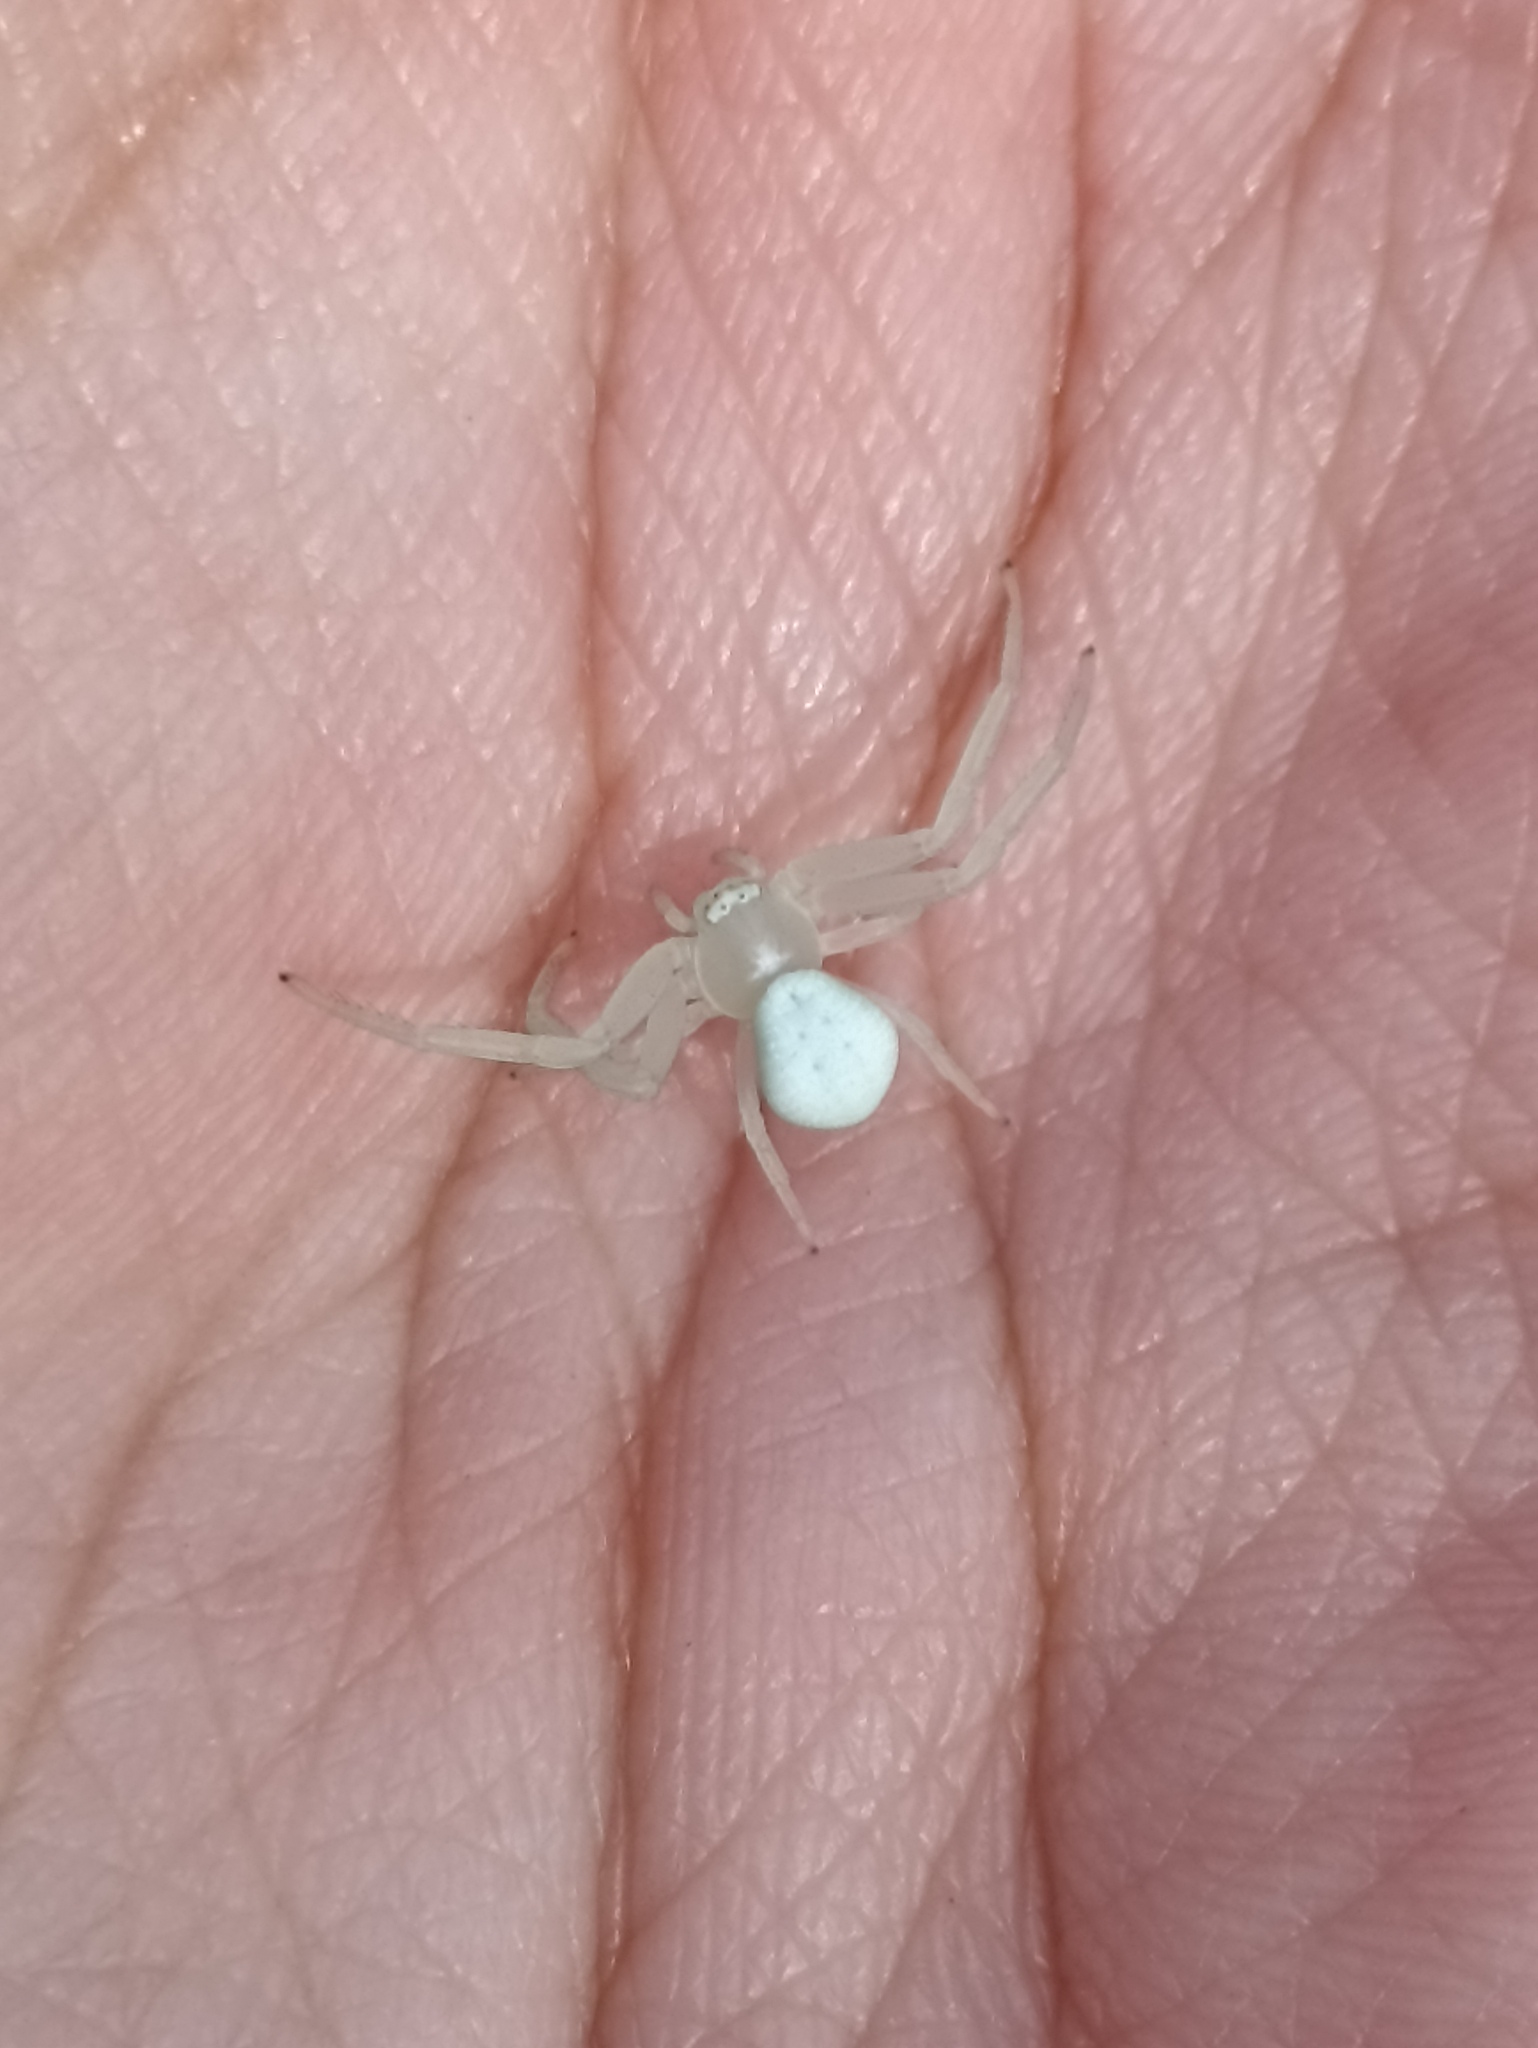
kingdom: Animalia
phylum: Arthropoda
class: Arachnida
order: Araneae
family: Thomisidae
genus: Misumena
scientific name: Misumena vatia
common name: Goldenrod crab spider
